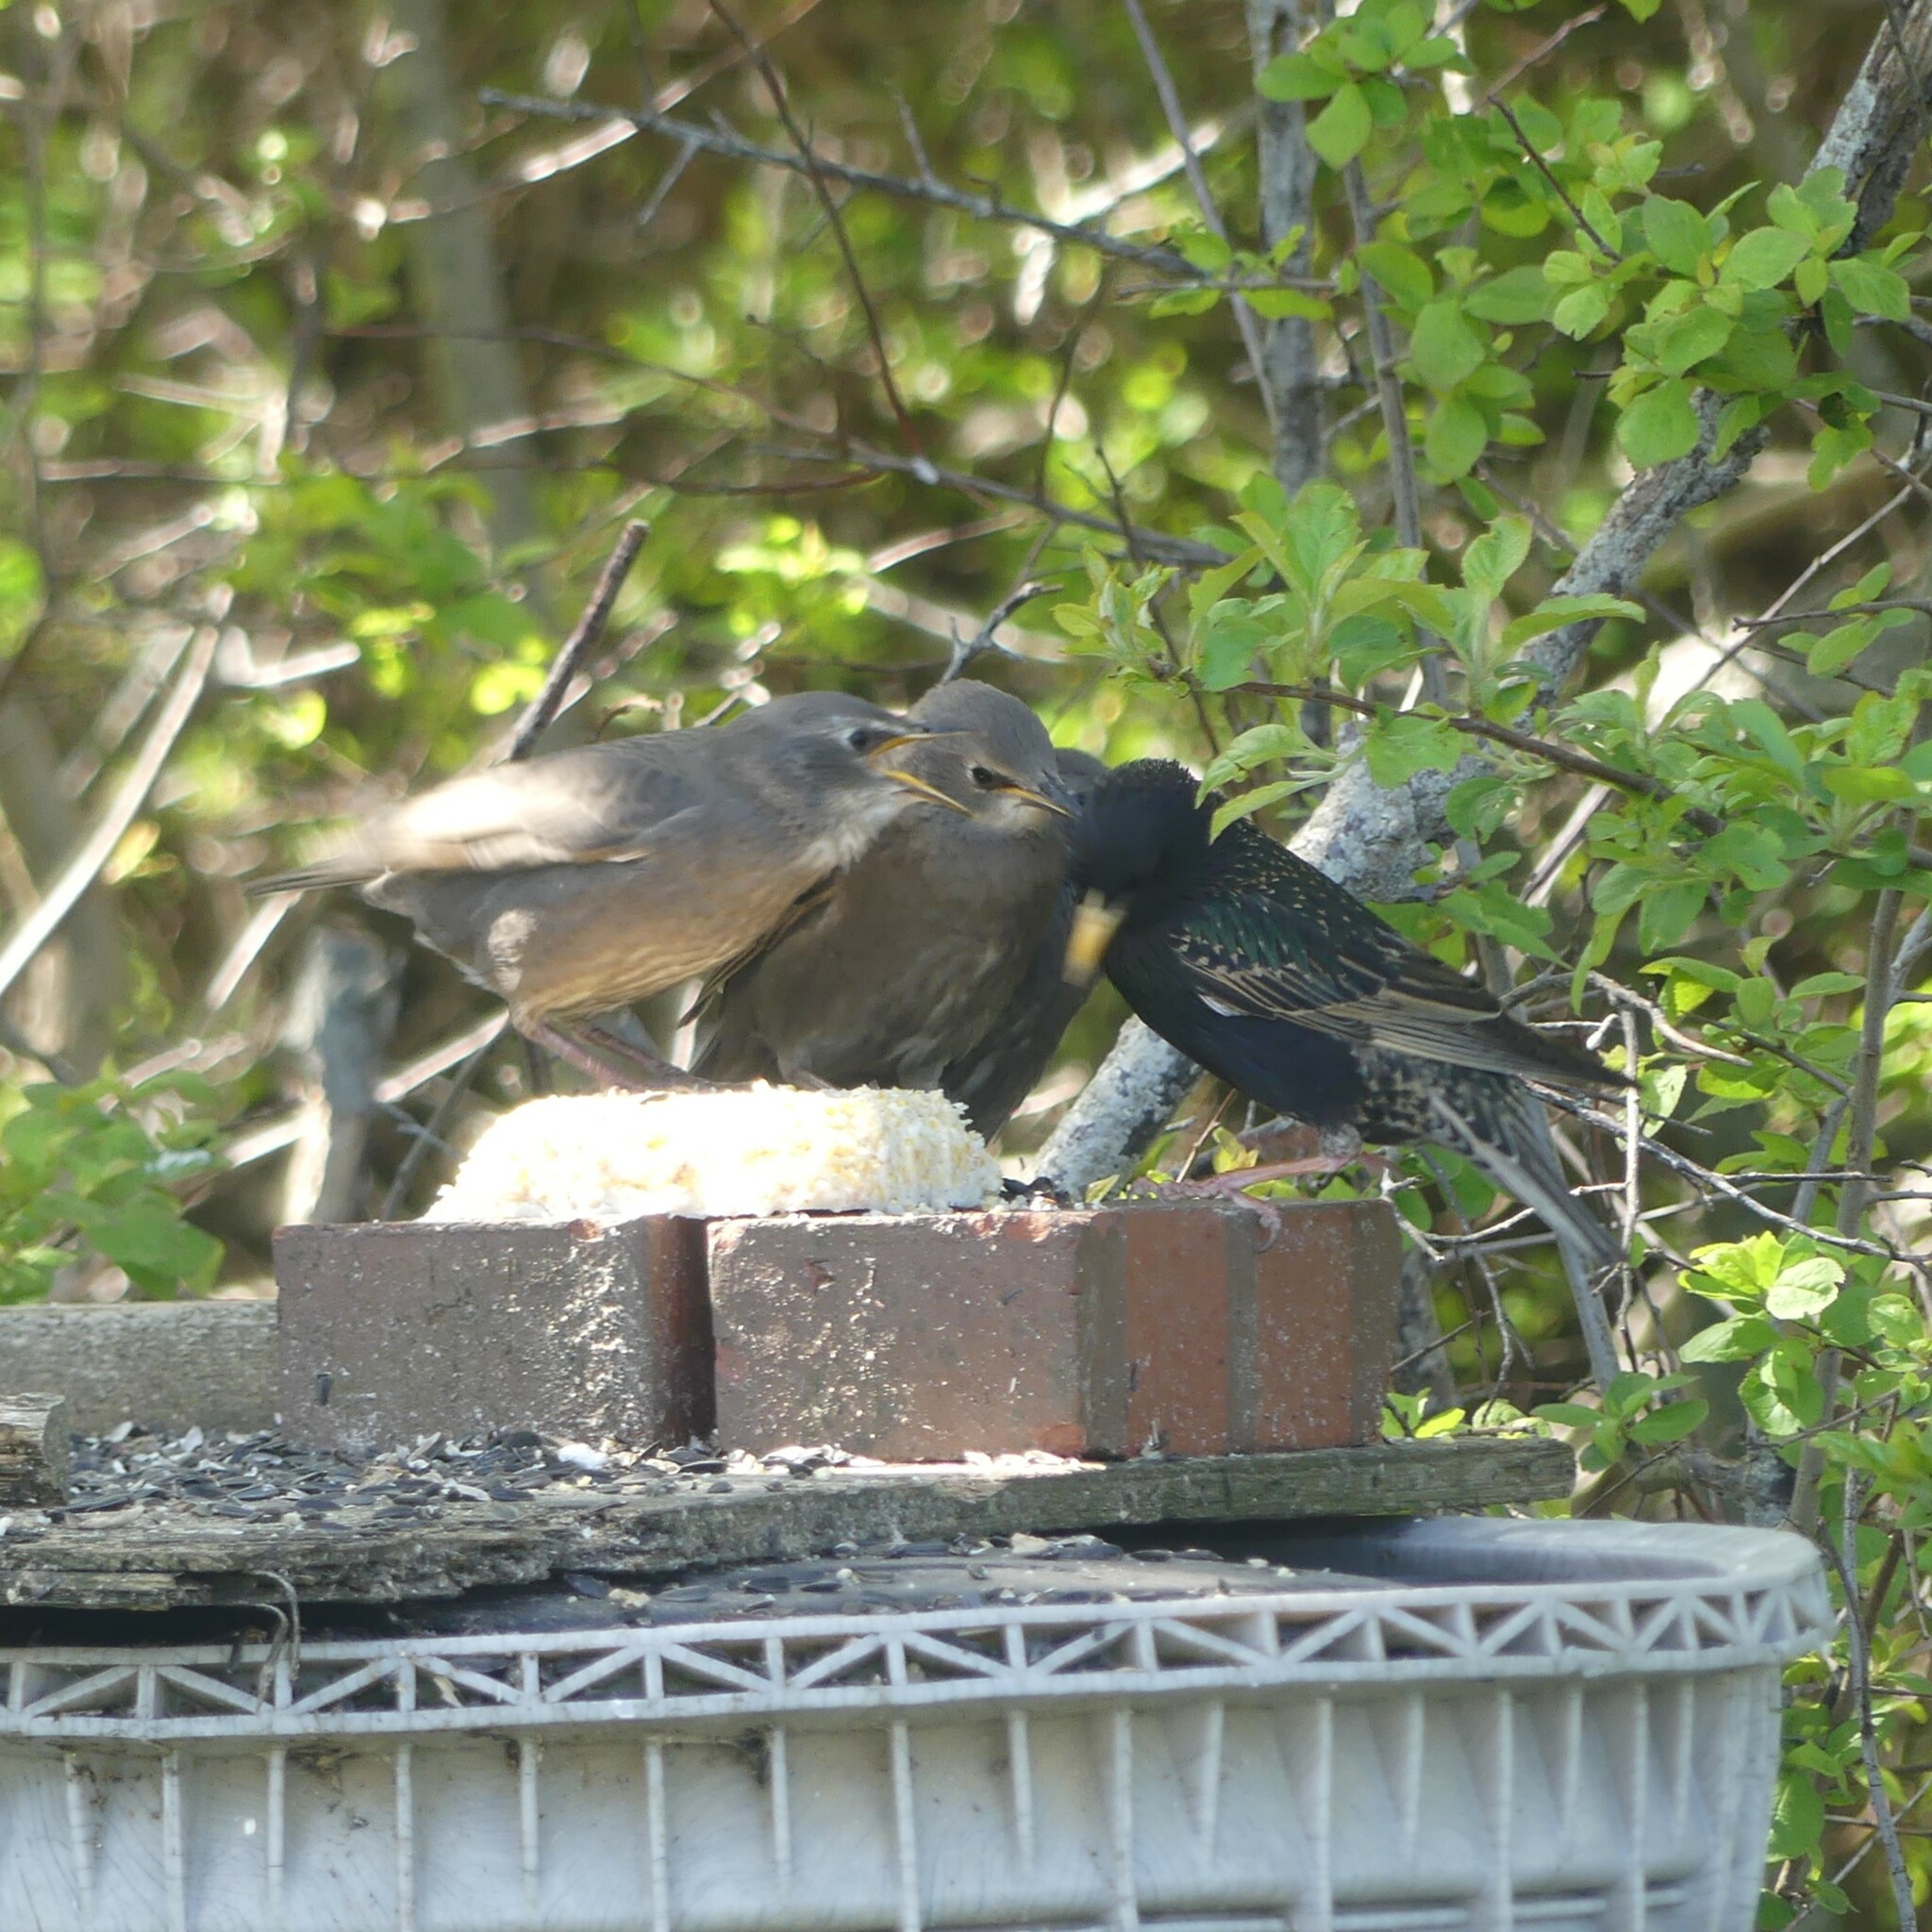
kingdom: Animalia
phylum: Chordata
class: Aves
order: Passeriformes
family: Sturnidae
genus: Sturnus
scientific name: Sturnus vulgaris
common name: Common starling
